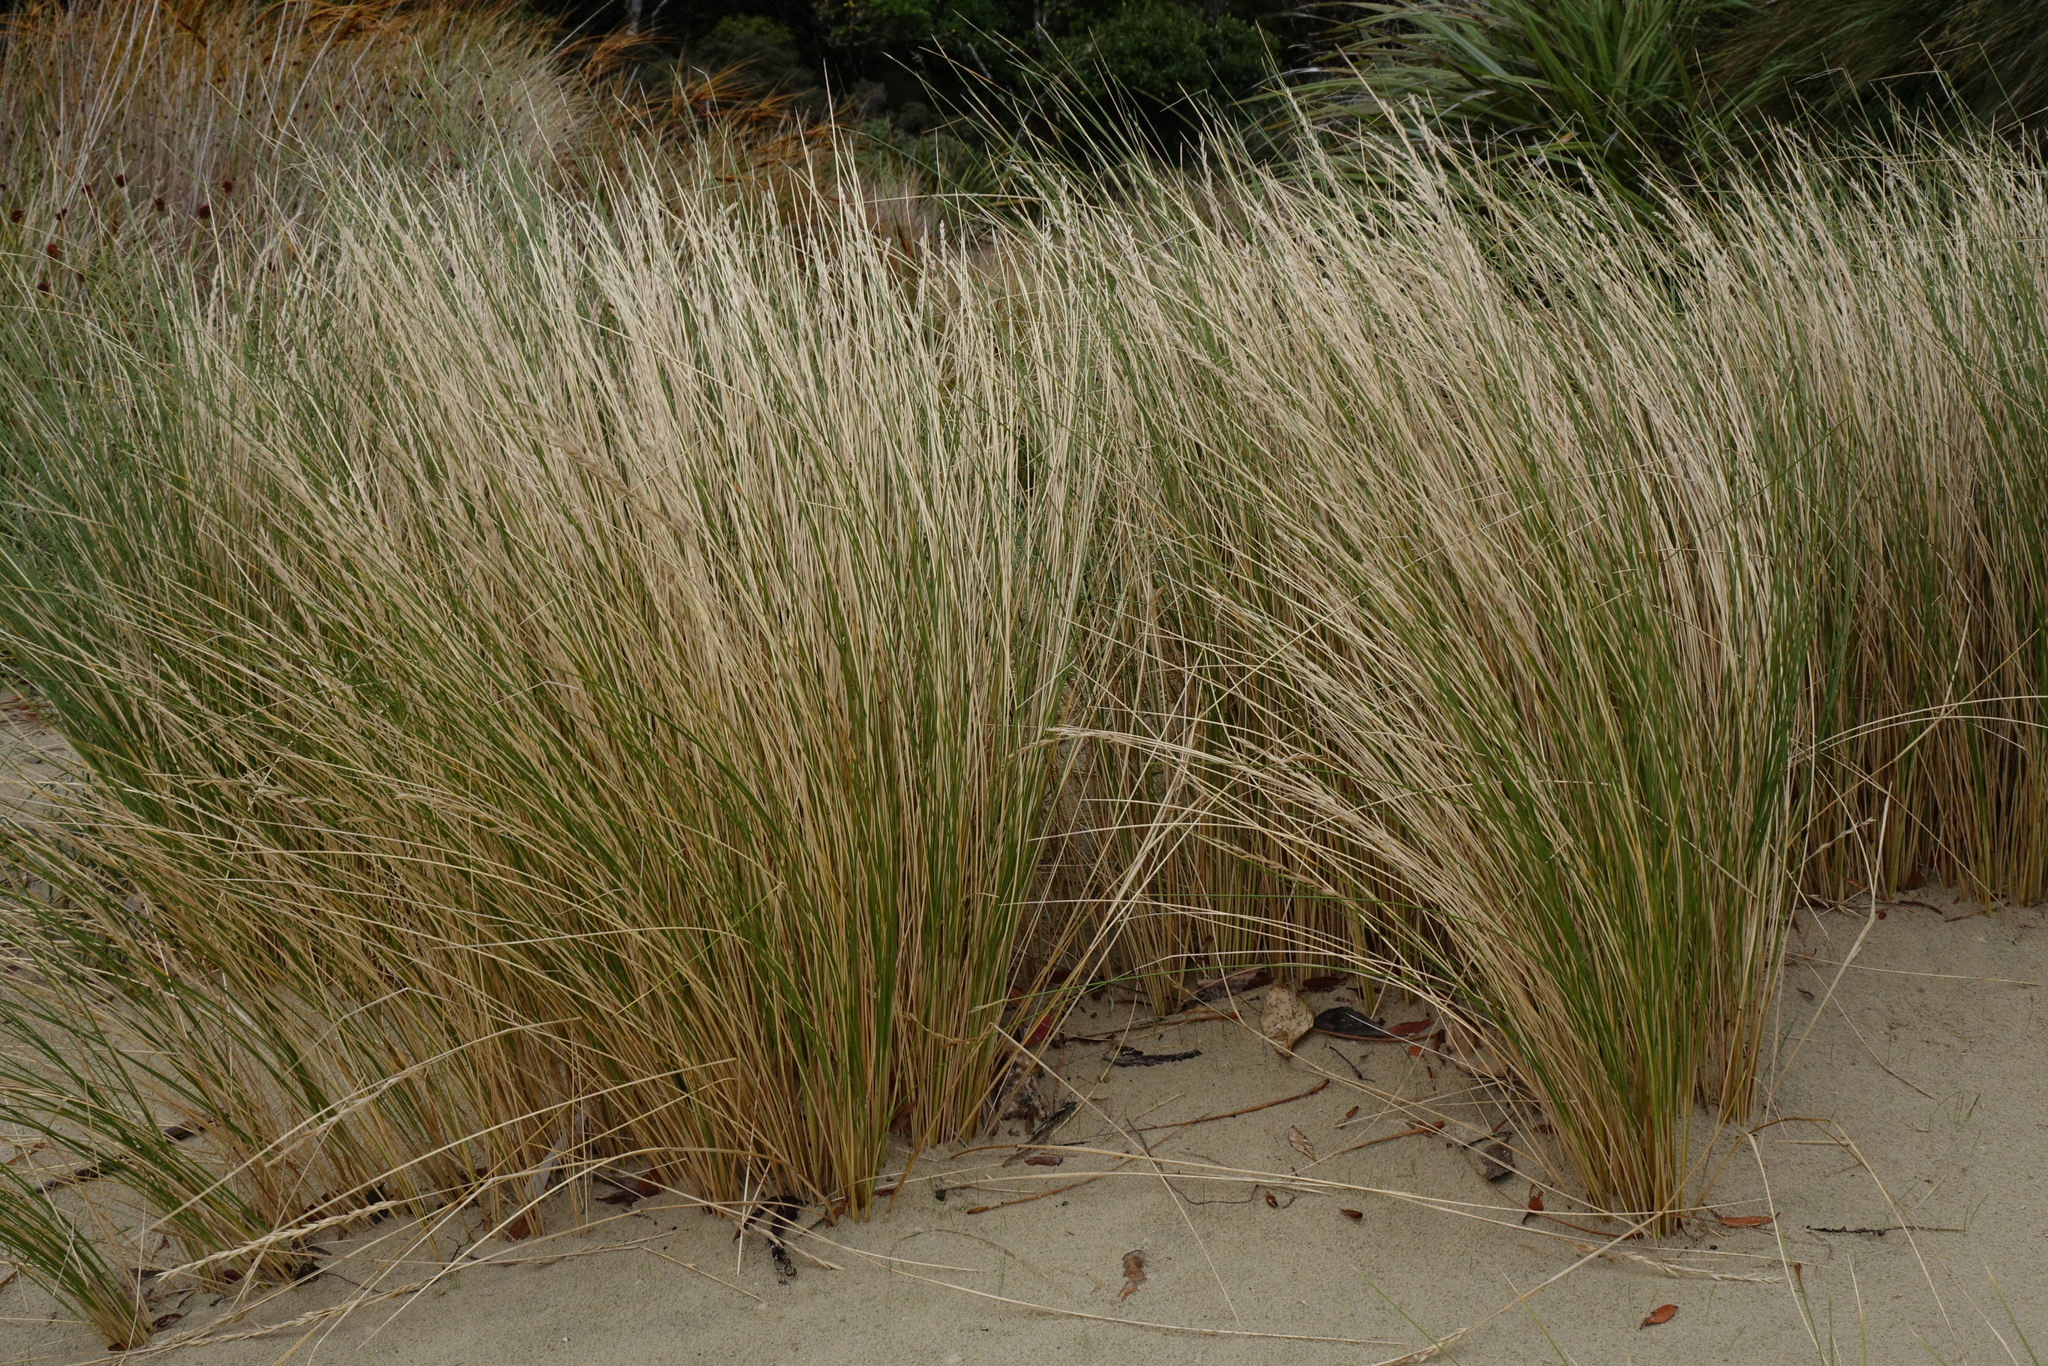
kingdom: Plantae
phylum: Tracheophyta
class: Liliopsida
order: Poales
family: Poaceae
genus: Poa
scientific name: Poa billardierei
